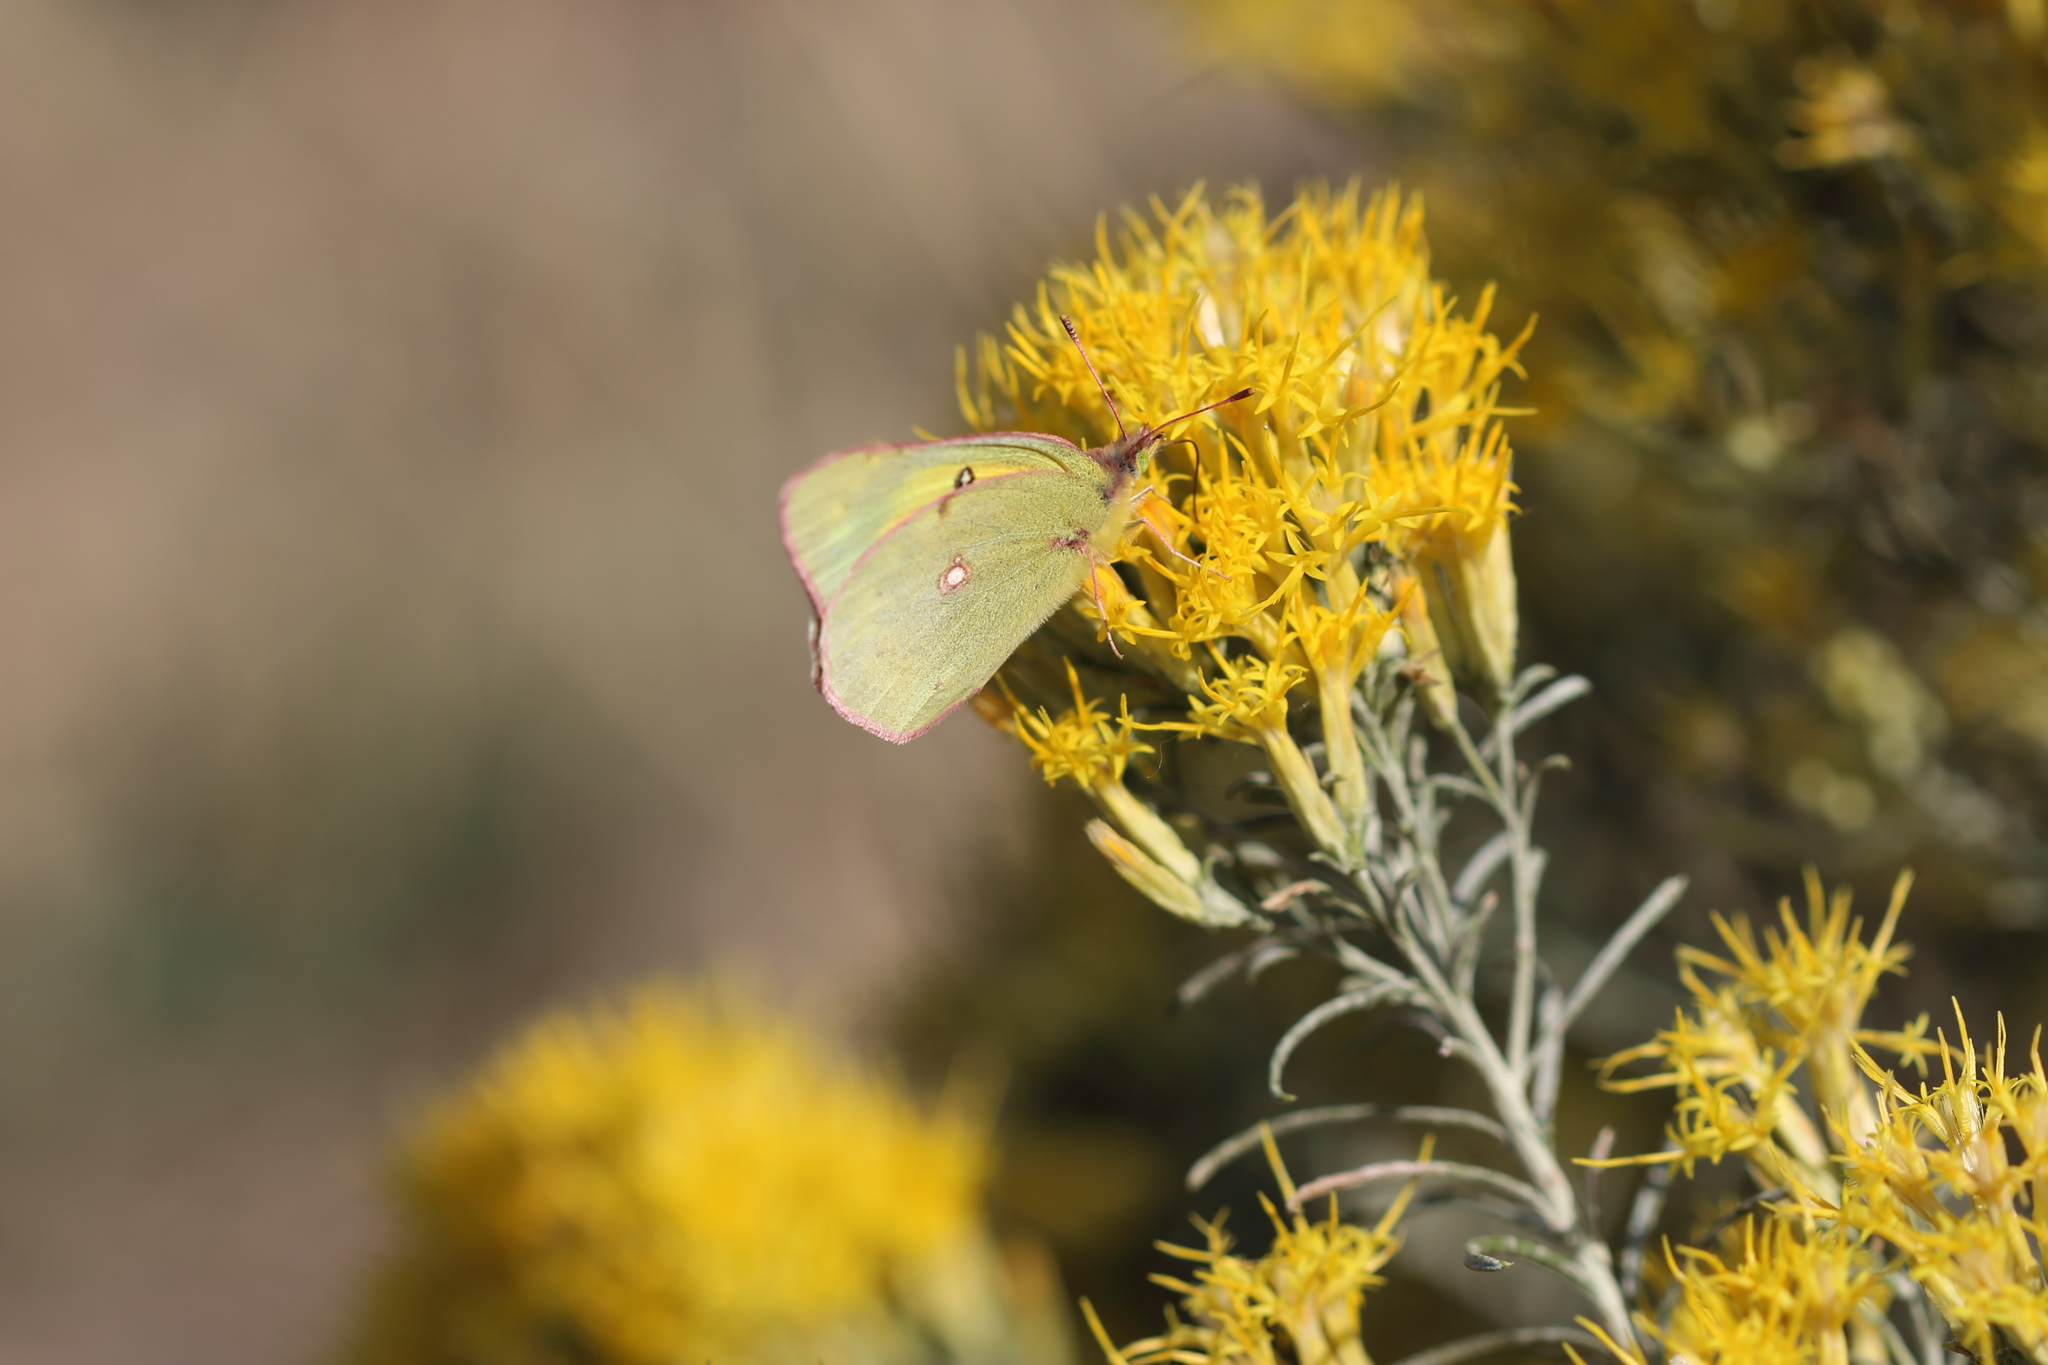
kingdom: Animalia
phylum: Arthropoda
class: Insecta
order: Lepidoptera
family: Pieridae
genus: Colias
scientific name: Colias eurytheme
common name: Alfalfa butterfly
